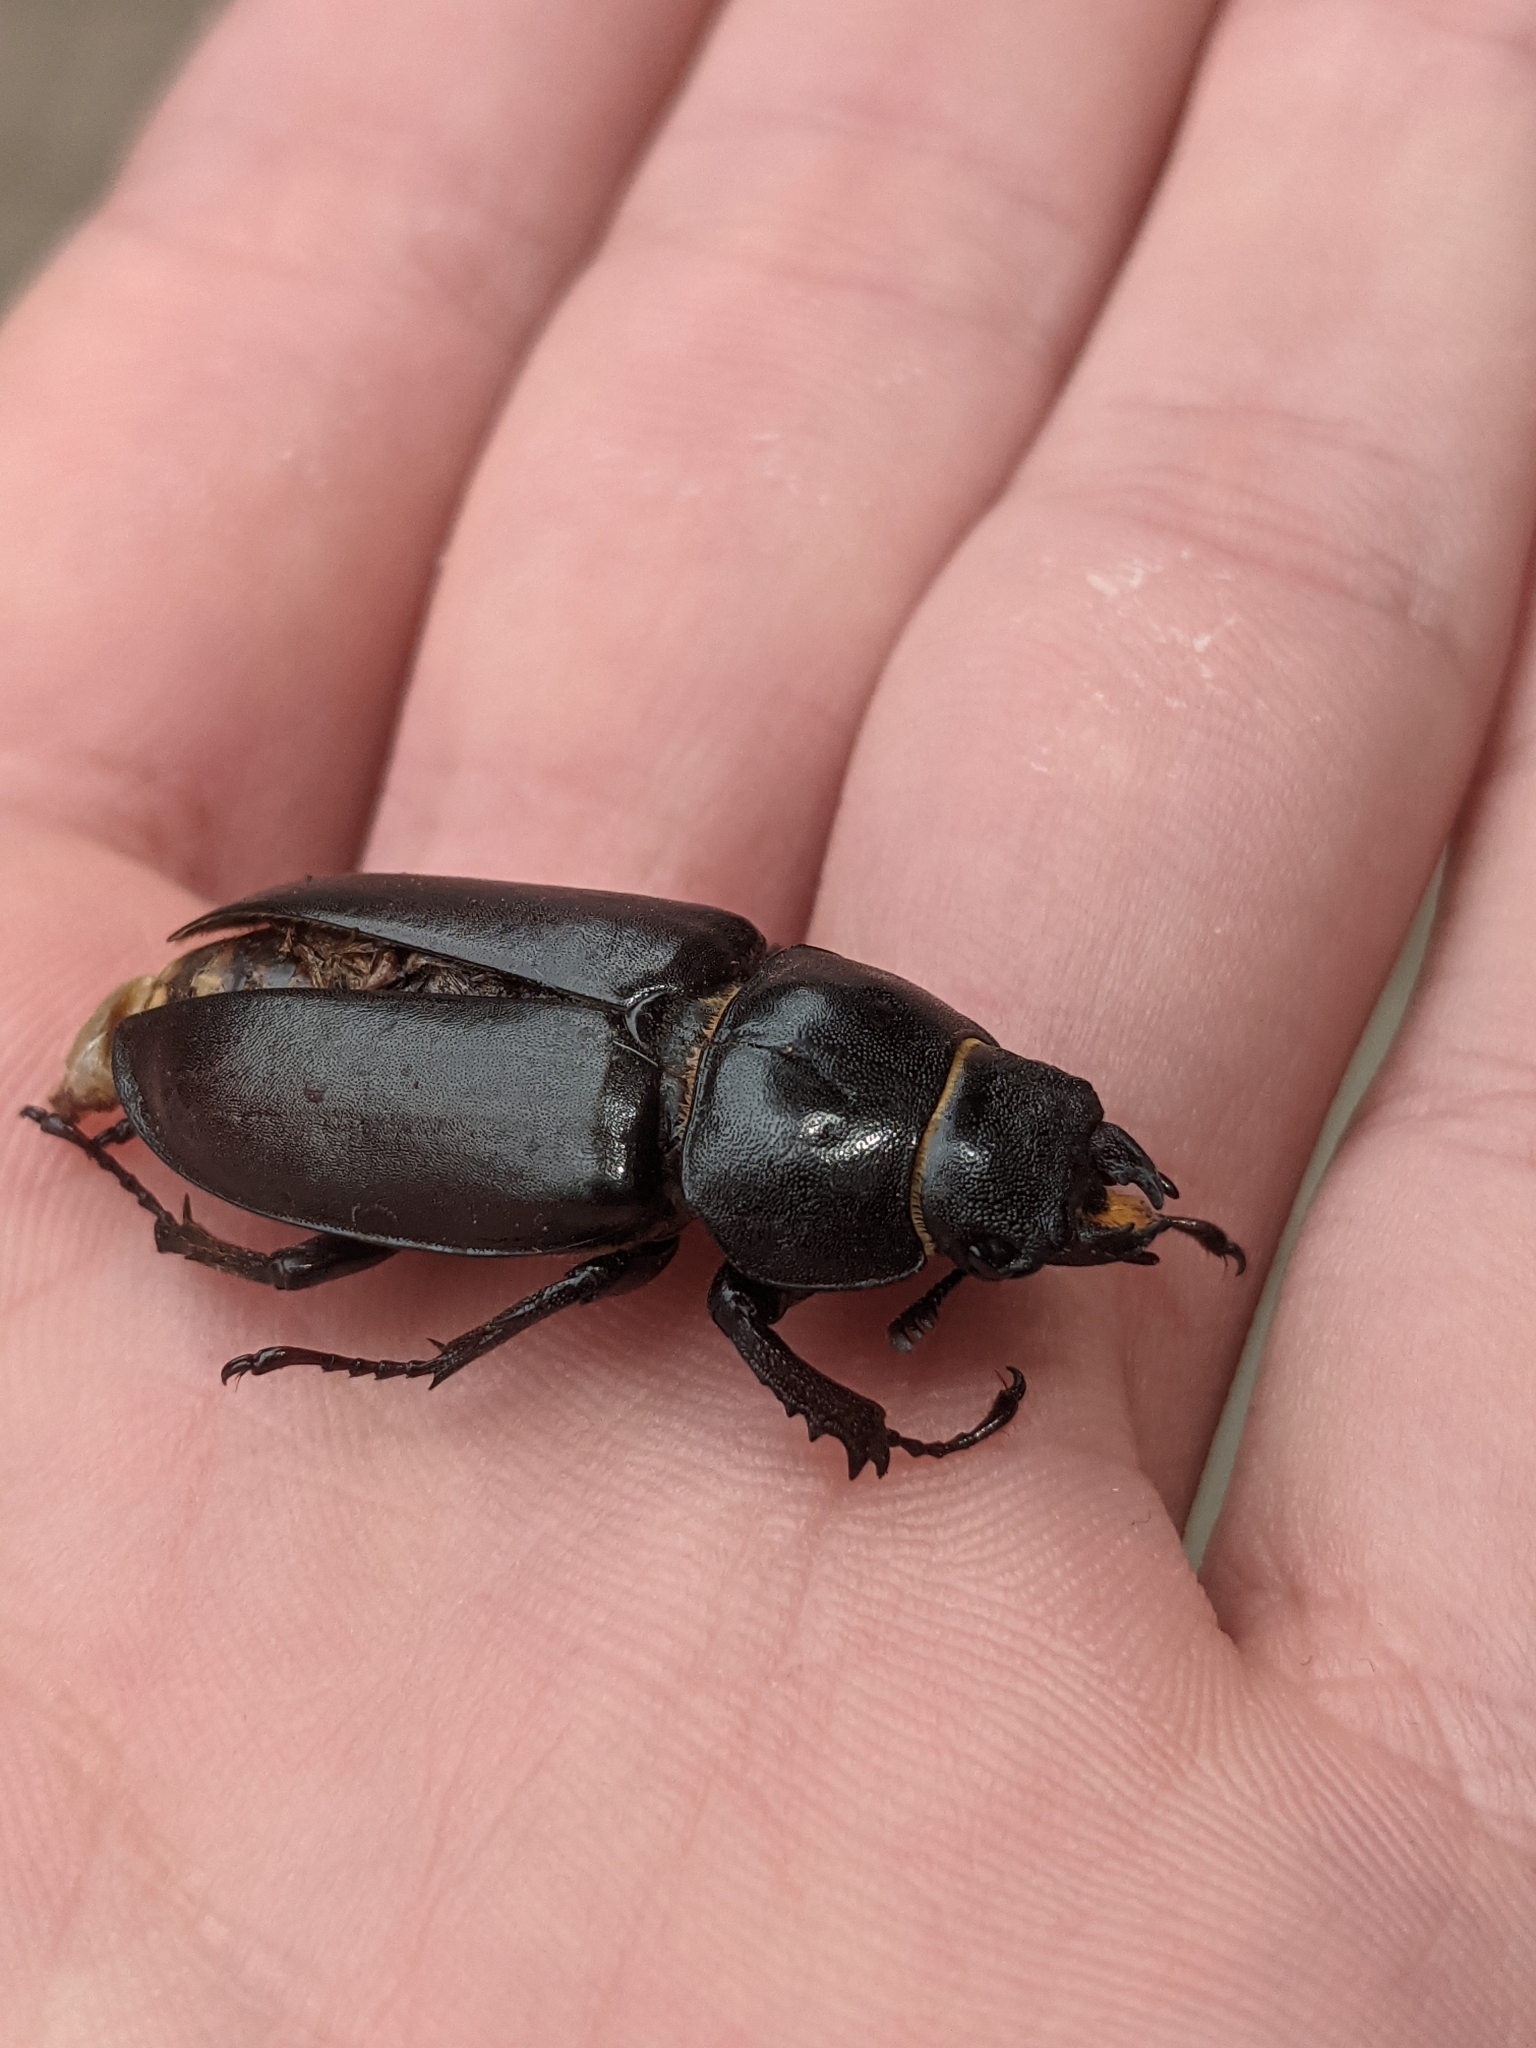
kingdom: Animalia
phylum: Arthropoda
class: Insecta
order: Coleoptera
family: Lucanidae
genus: Lucanus
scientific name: Lucanus cervus
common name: Stag beetle
